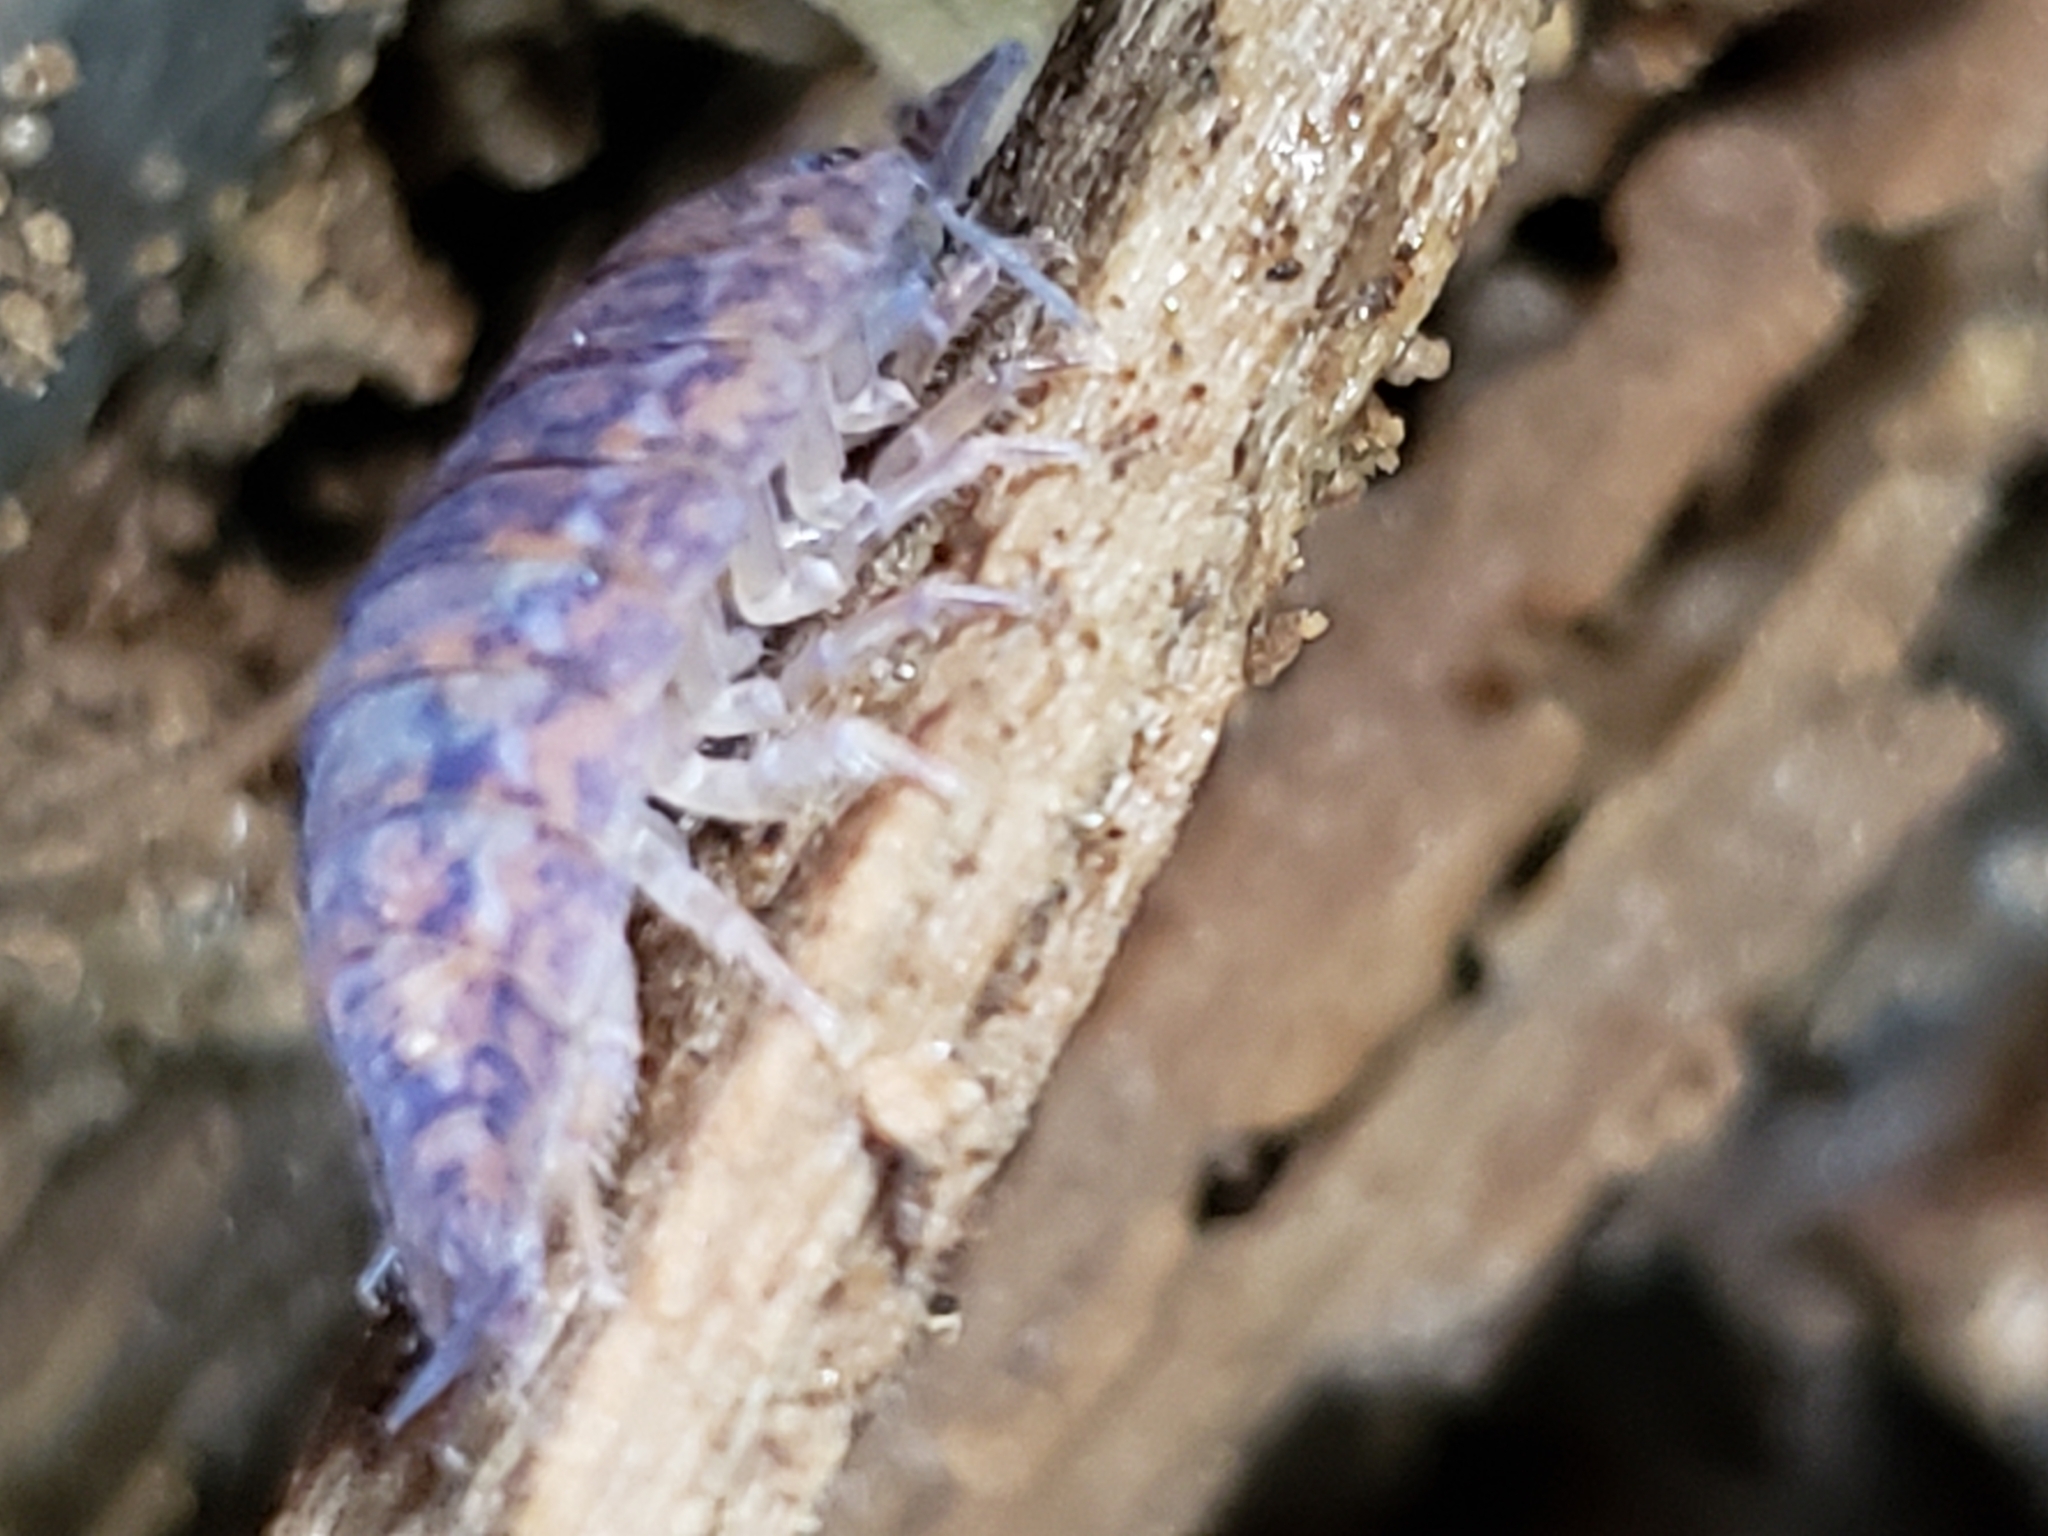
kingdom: Animalia
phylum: Arthropoda
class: Malacostraca
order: Isopoda
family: Trachelipodidae
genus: Trachelipus
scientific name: Trachelipus rathkii
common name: Isopod
